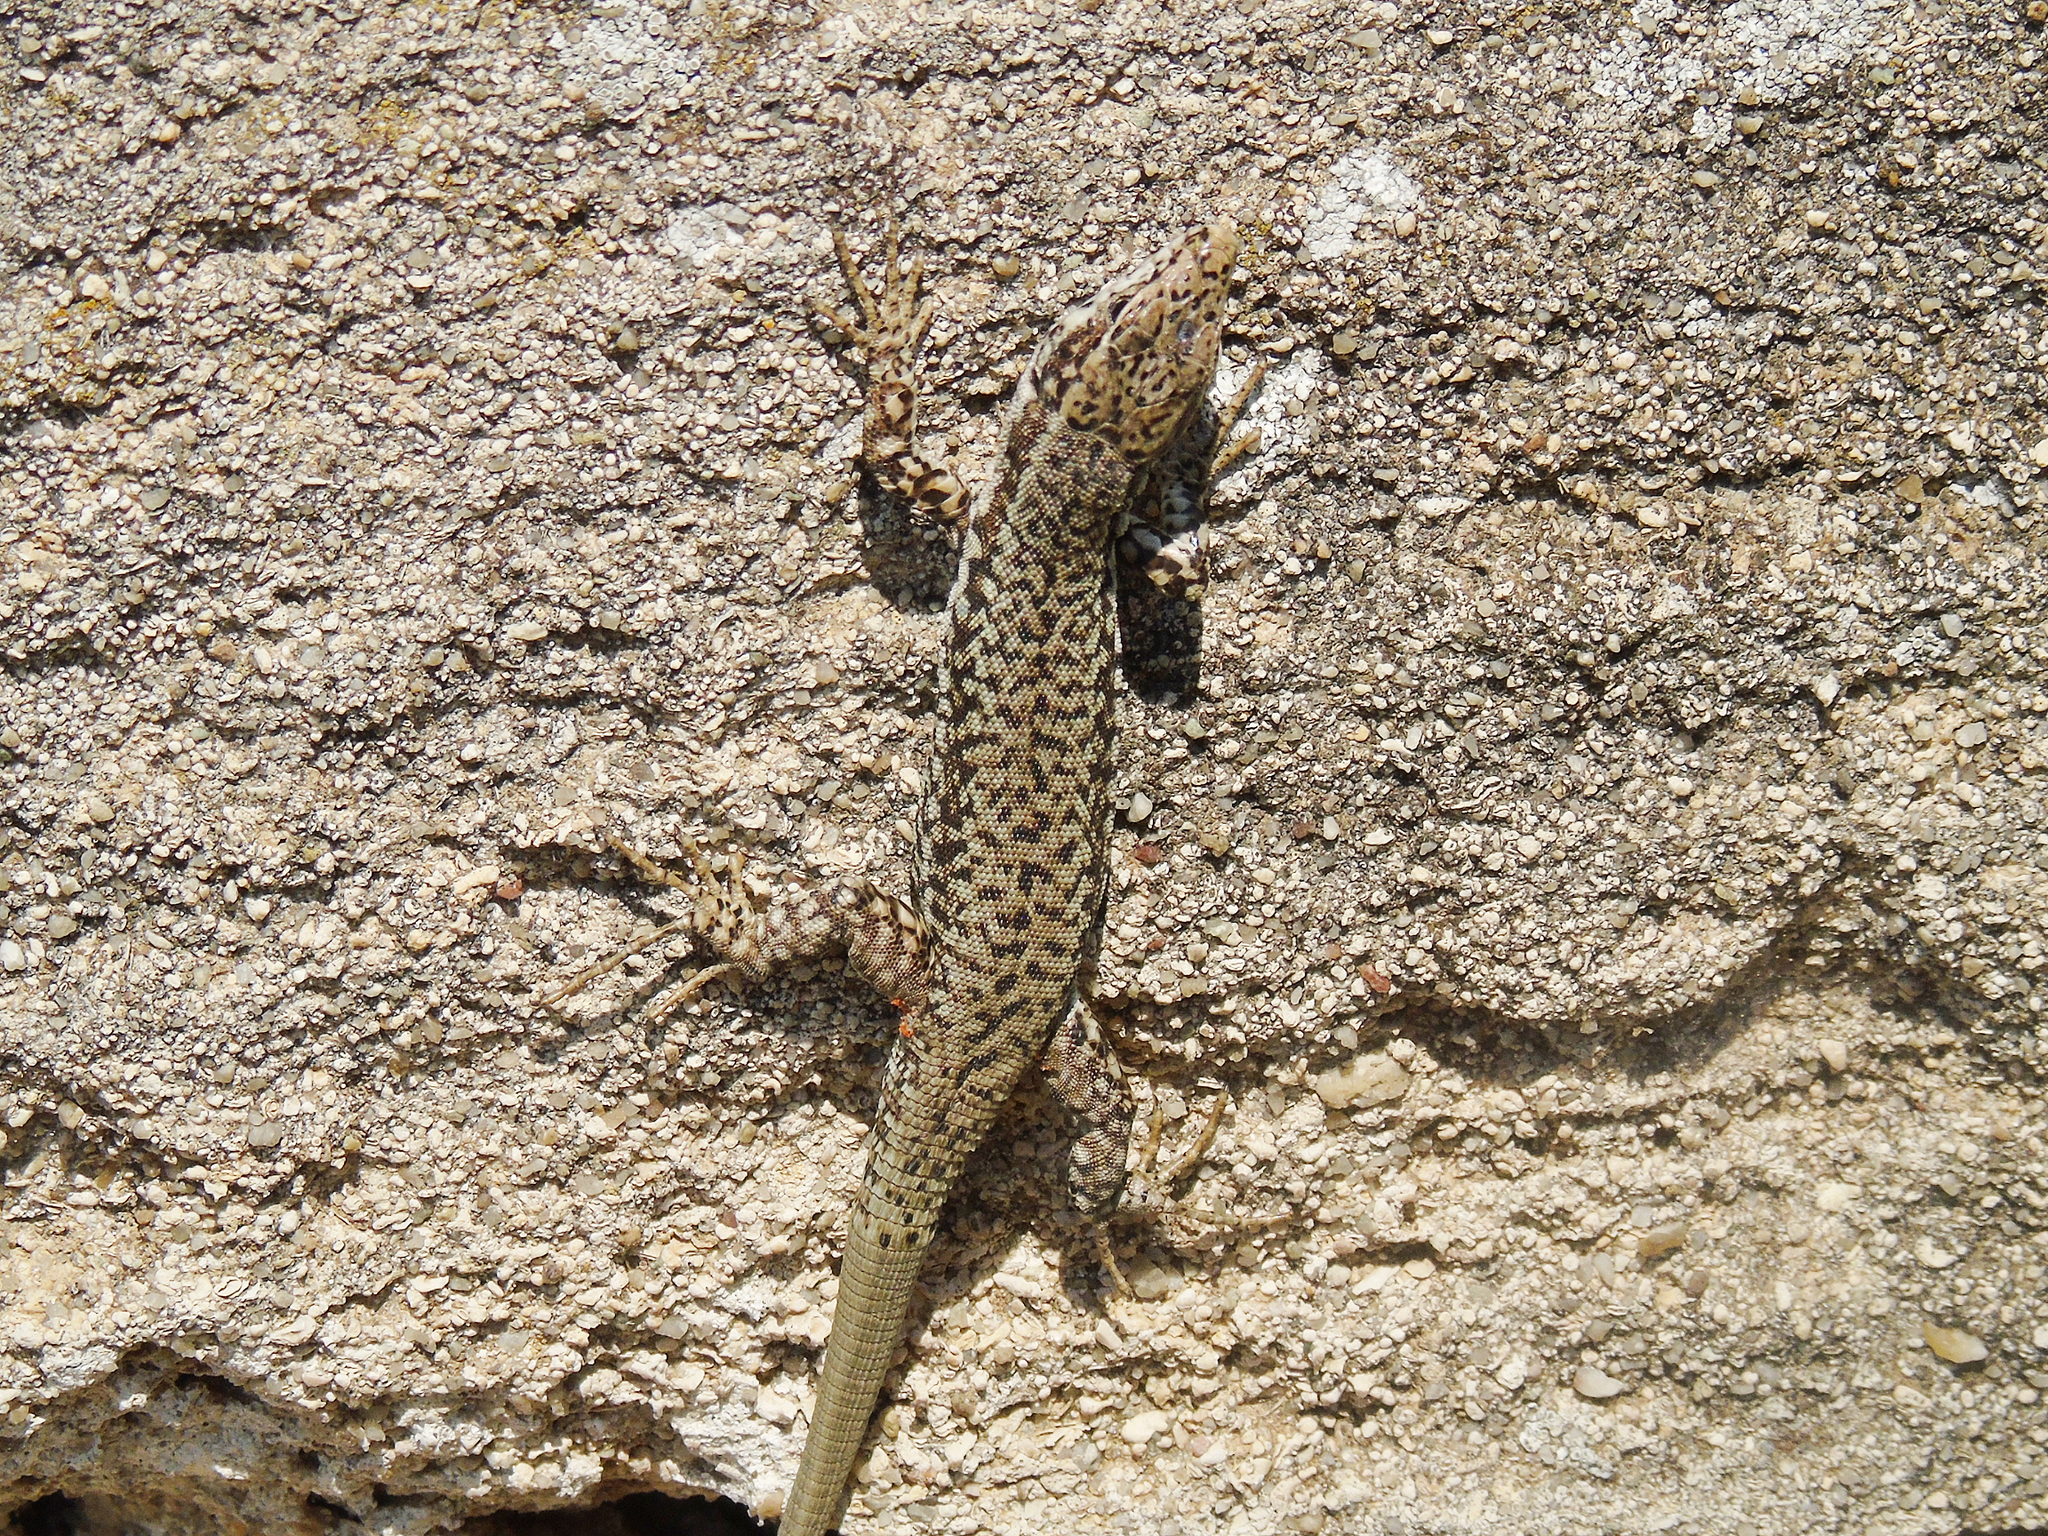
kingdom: Animalia
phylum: Chordata
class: Squamata
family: Lacertidae
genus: Podarcis
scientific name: Podarcis muralis
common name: Common wall lizard
